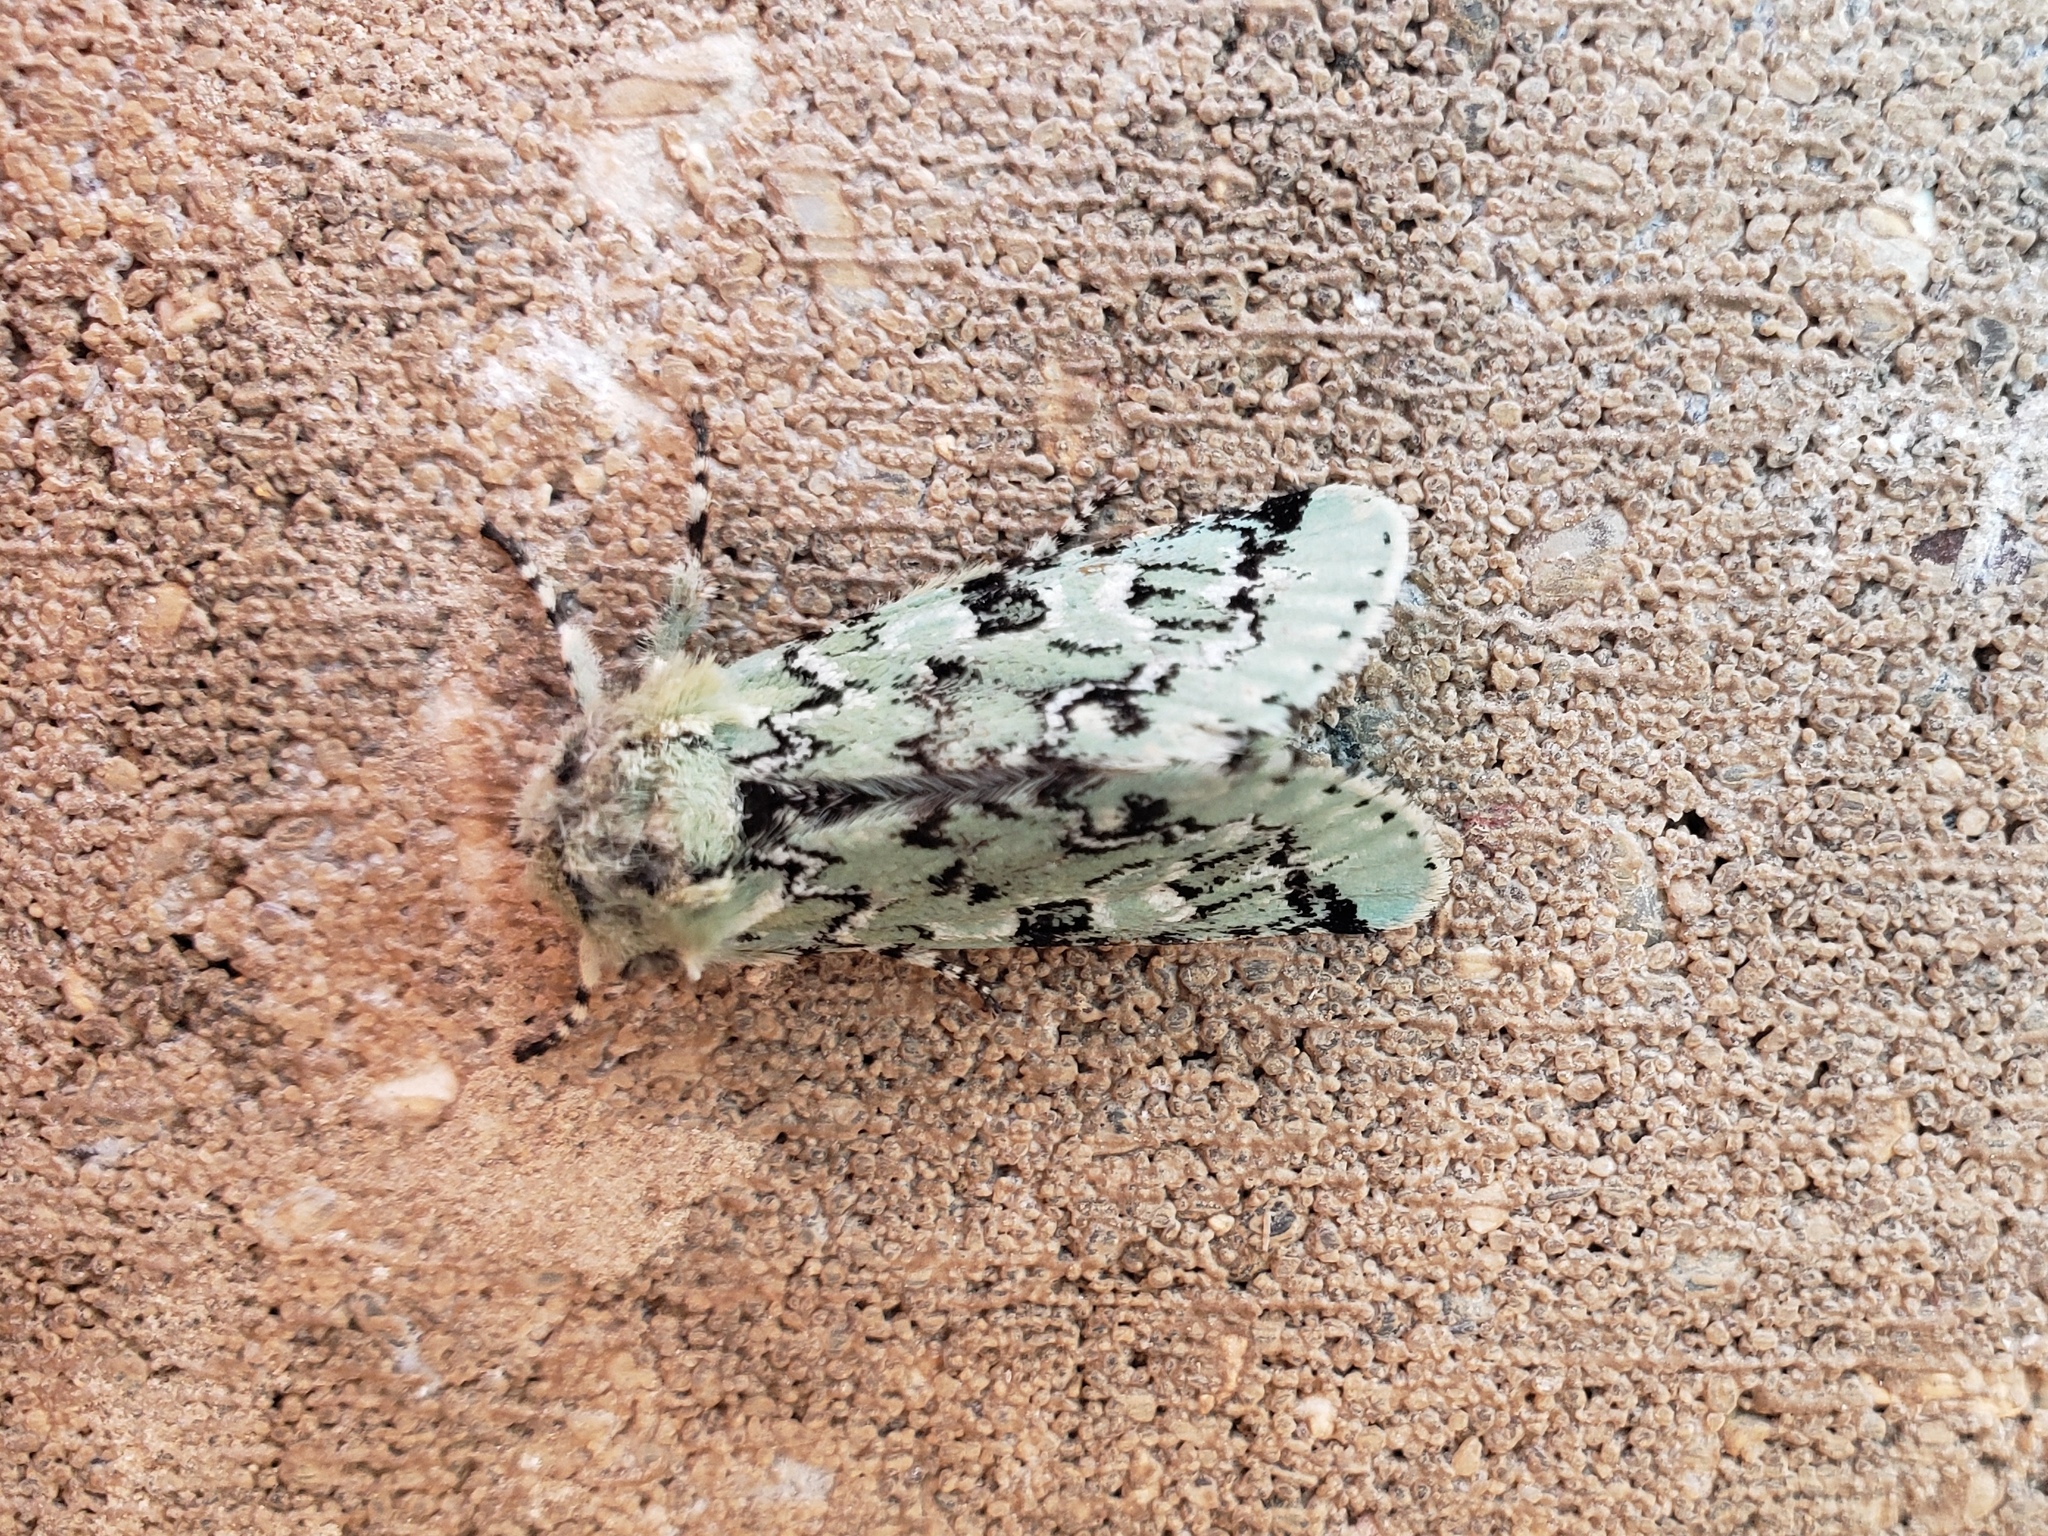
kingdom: Animalia
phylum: Arthropoda
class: Insecta
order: Lepidoptera
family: Noctuidae
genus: Feralia
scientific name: Feralia major
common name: Major sallow
